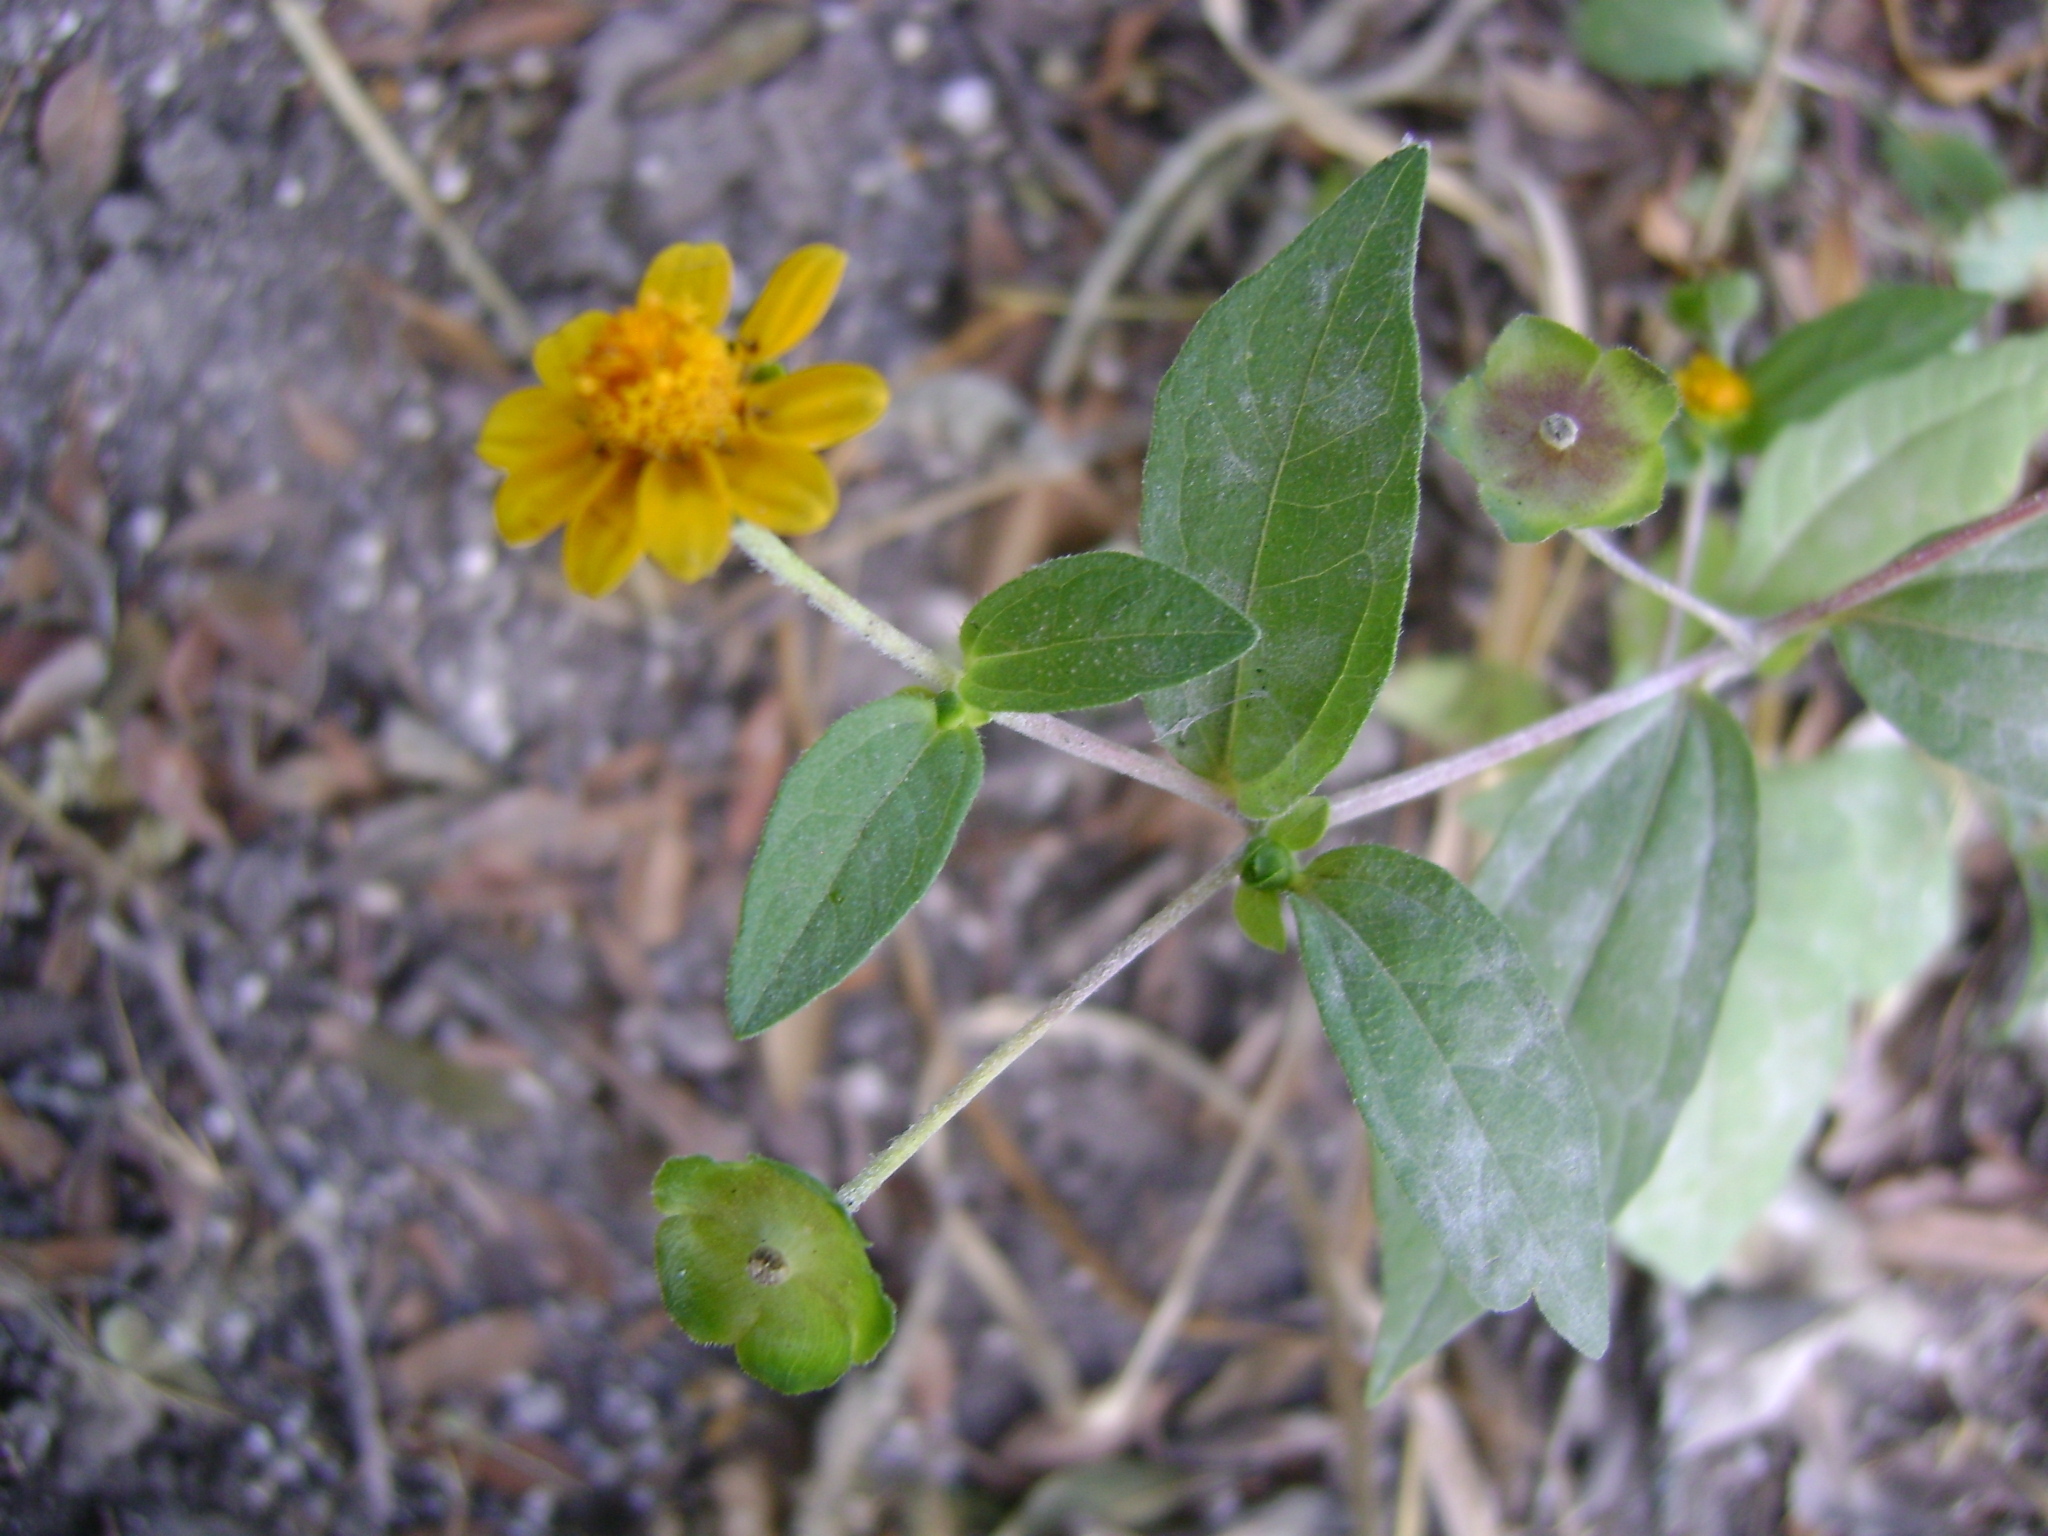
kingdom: Plantae
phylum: Tracheophyta
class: Magnoliopsida
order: Asterales
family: Asteraceae
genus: Melampodium
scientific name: Melampodium divaricatum
